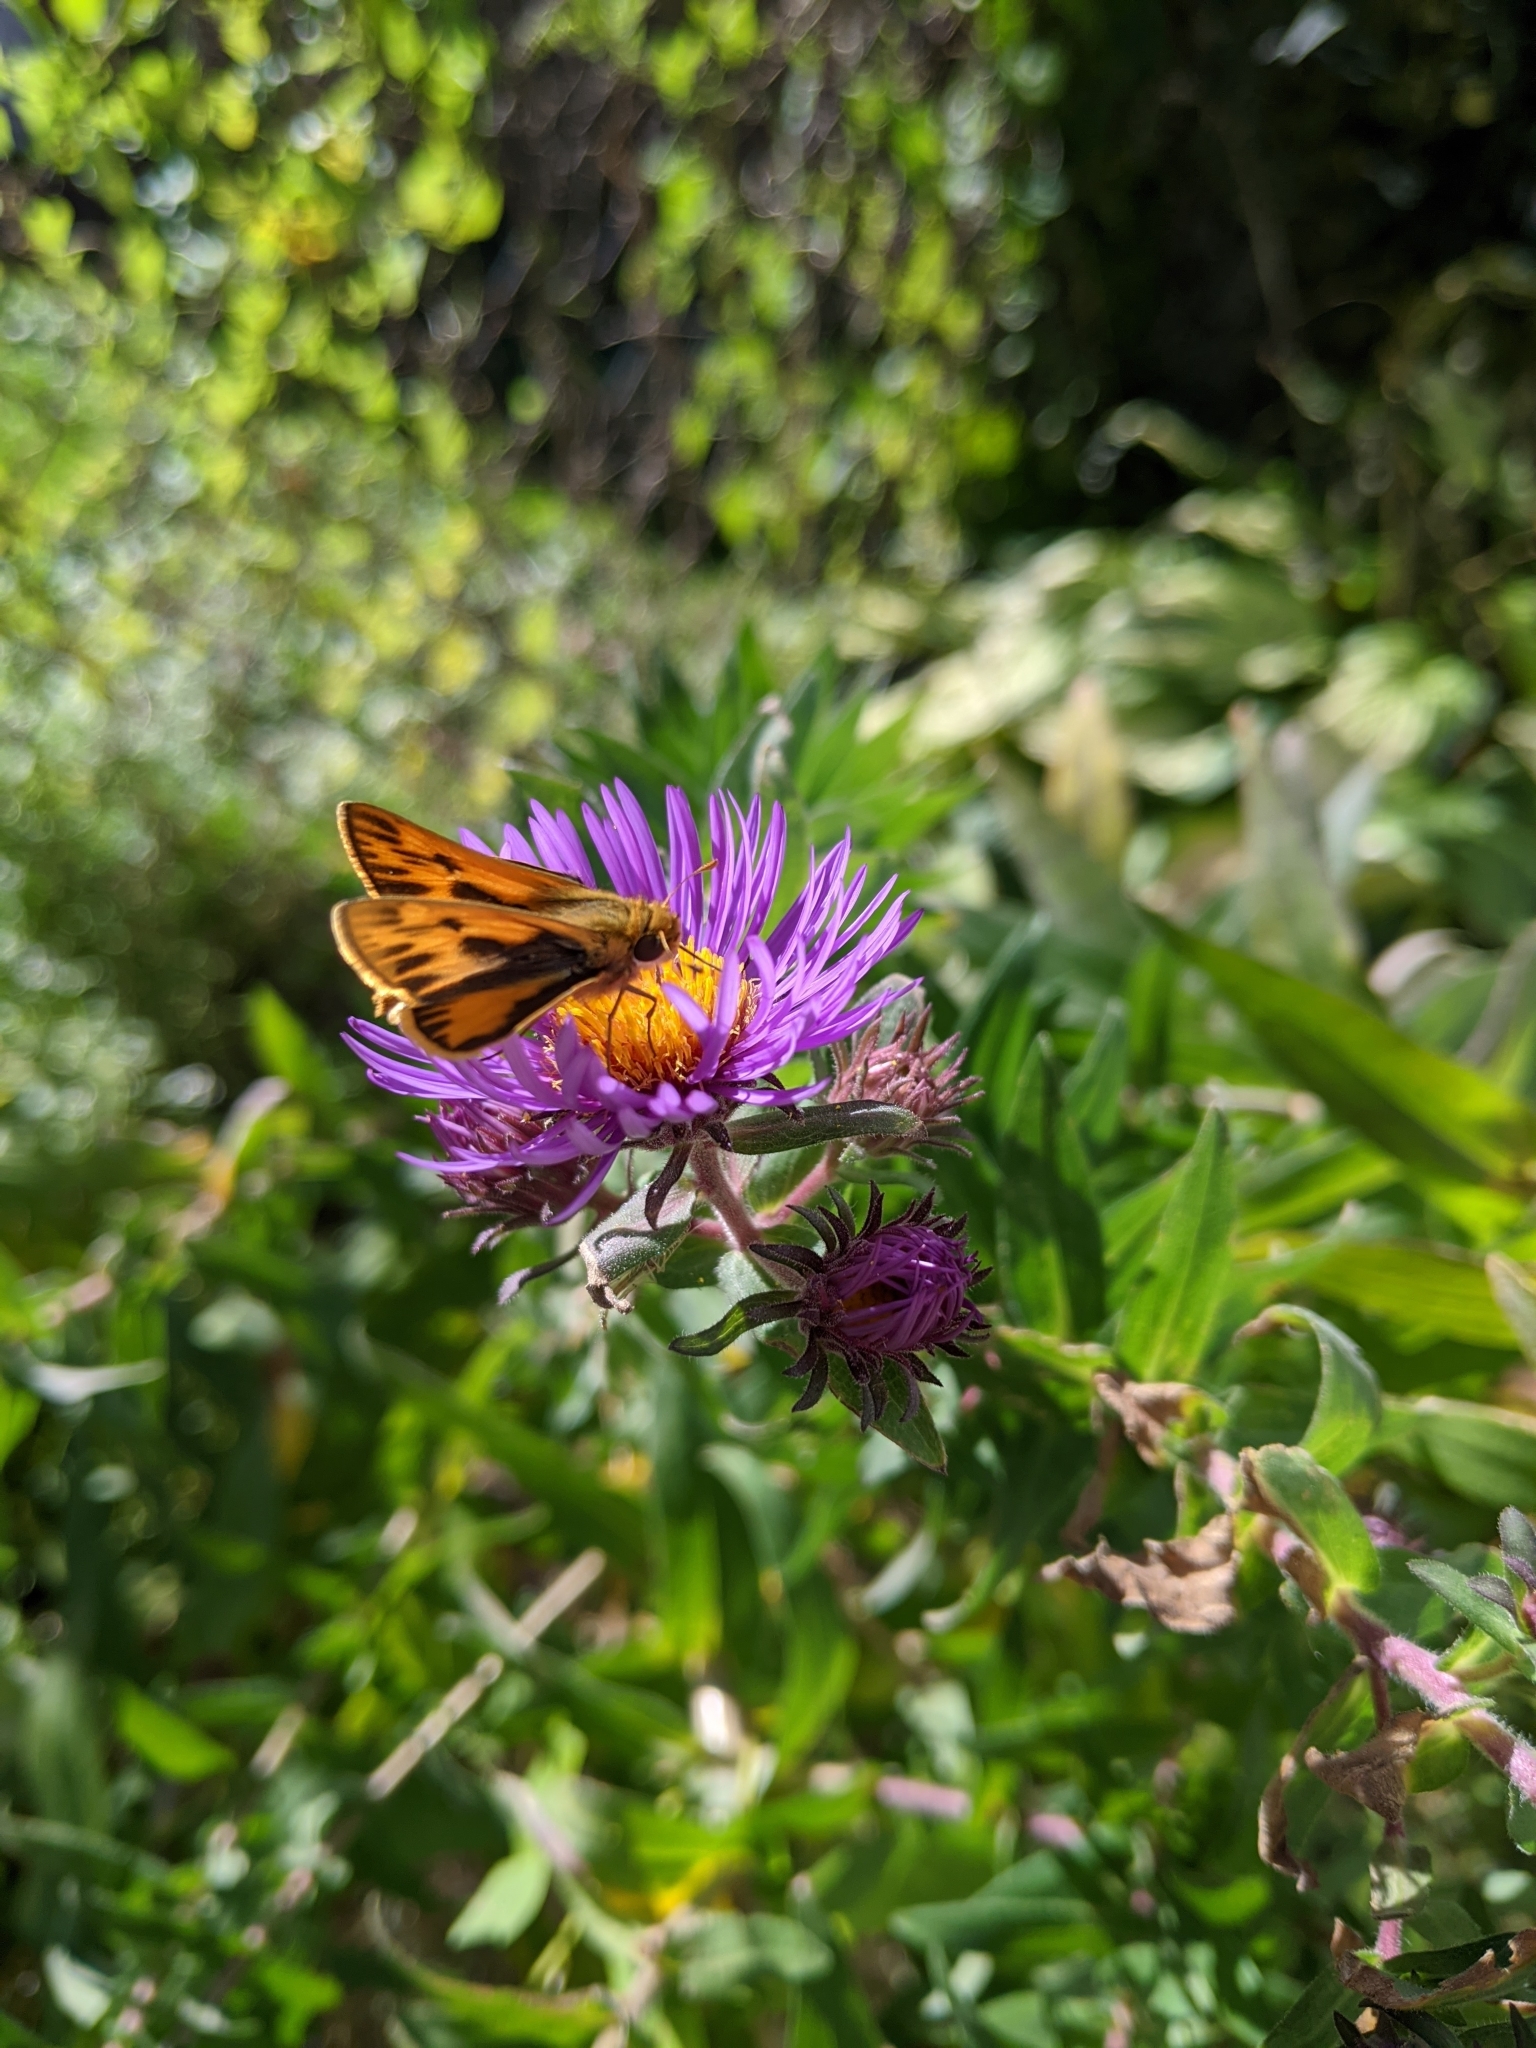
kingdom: Animalia
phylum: Arthropoda
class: Insecta
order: Lepidoptera
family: Hesperiidae
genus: Hylephila
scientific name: Hylephila phyleus
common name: Fiery skipper
